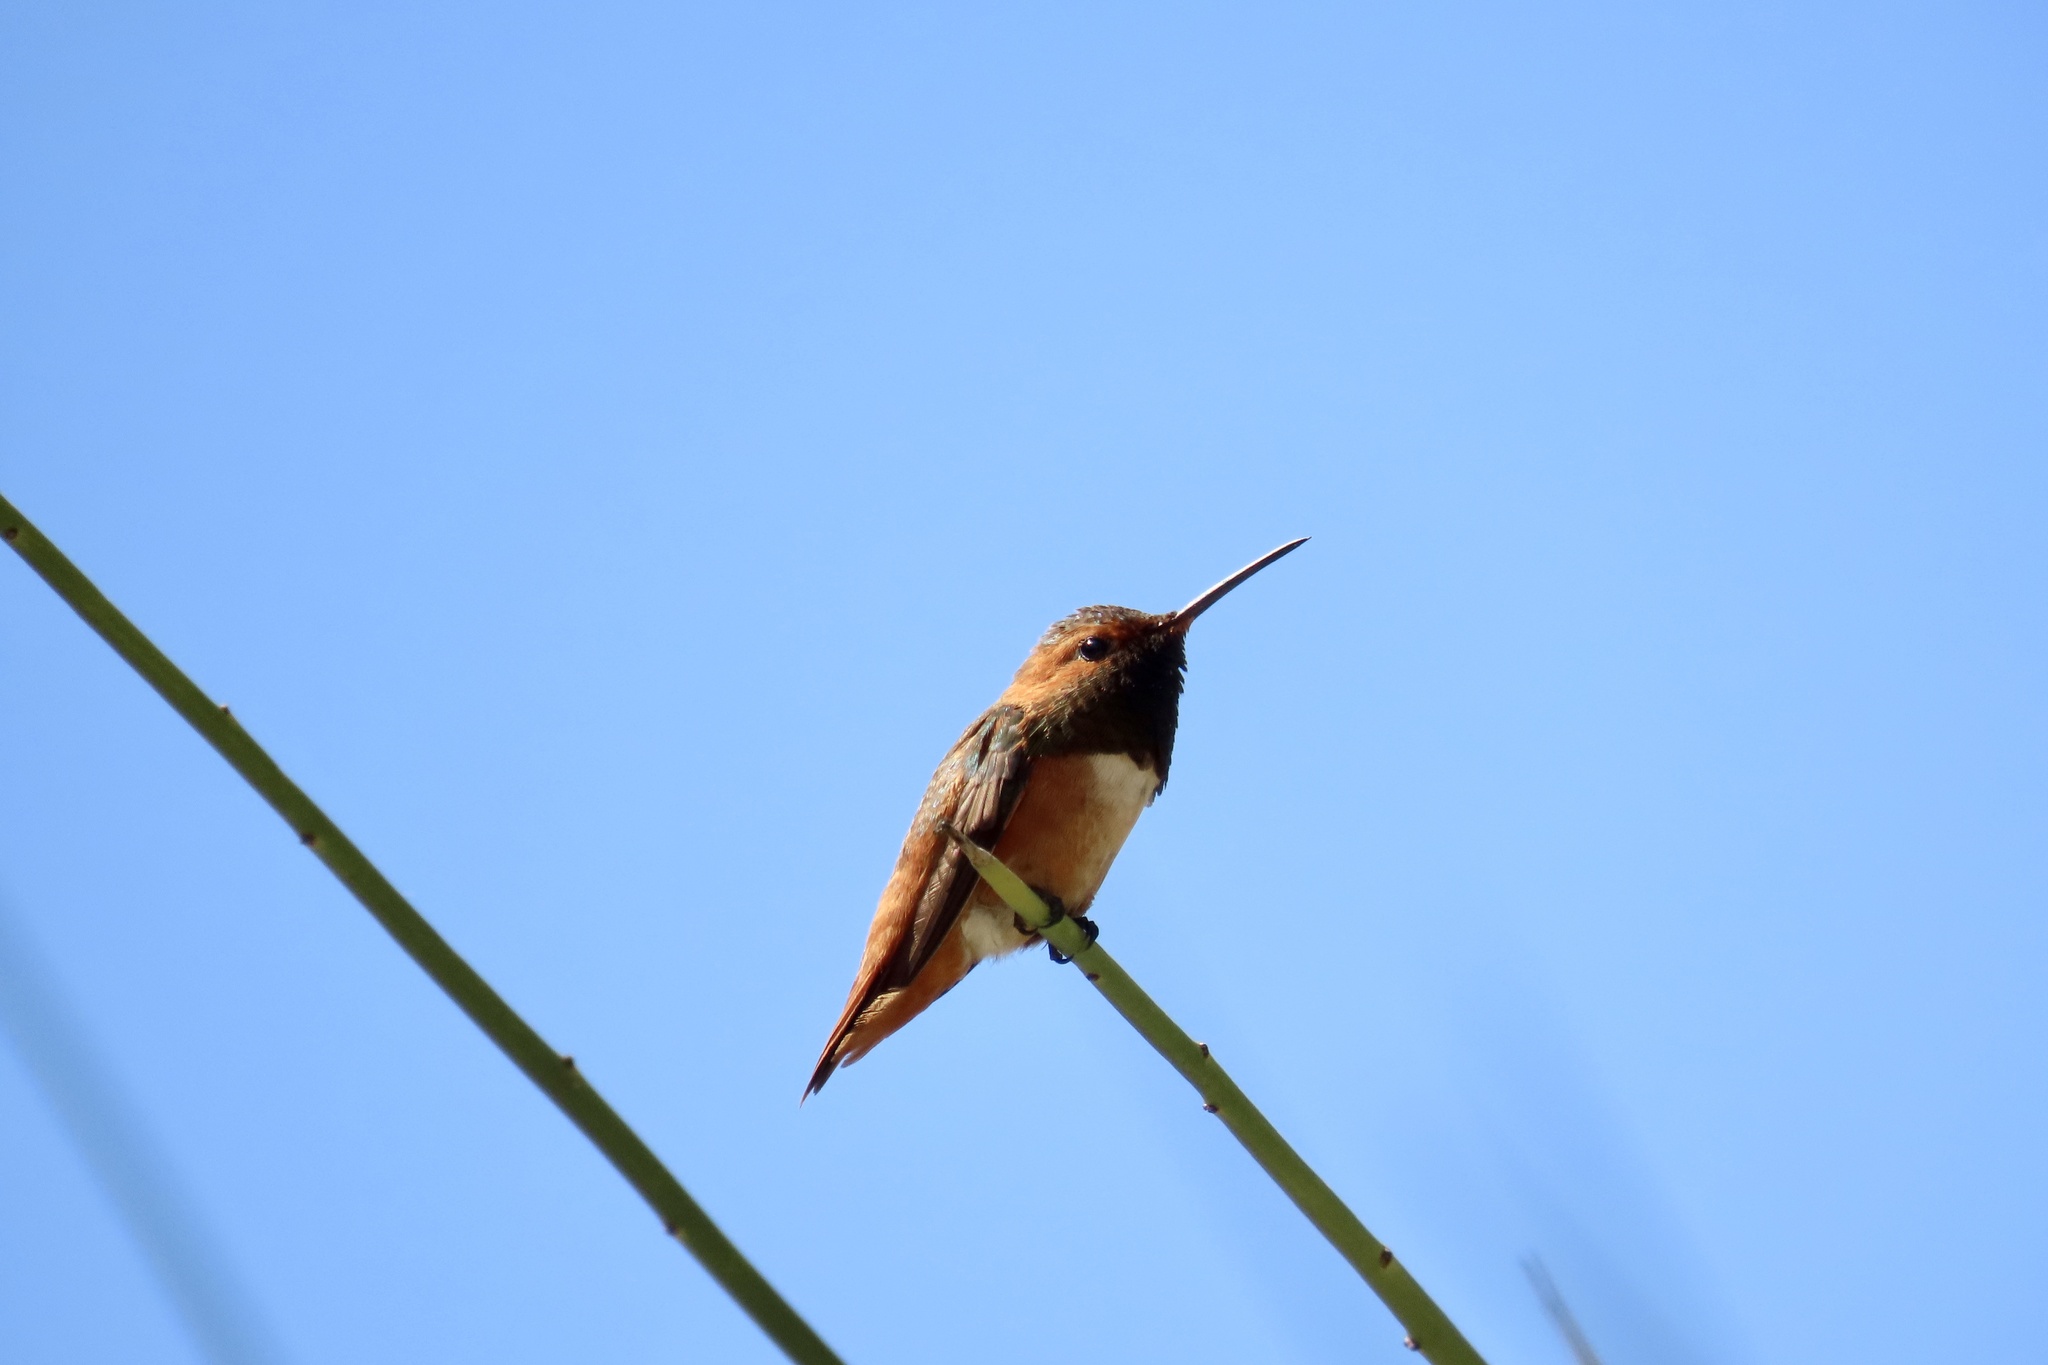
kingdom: Animalia
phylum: Chordata
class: Aves
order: Apodiformes
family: Trochilidae
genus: Selasphorus
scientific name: Selasphorus
